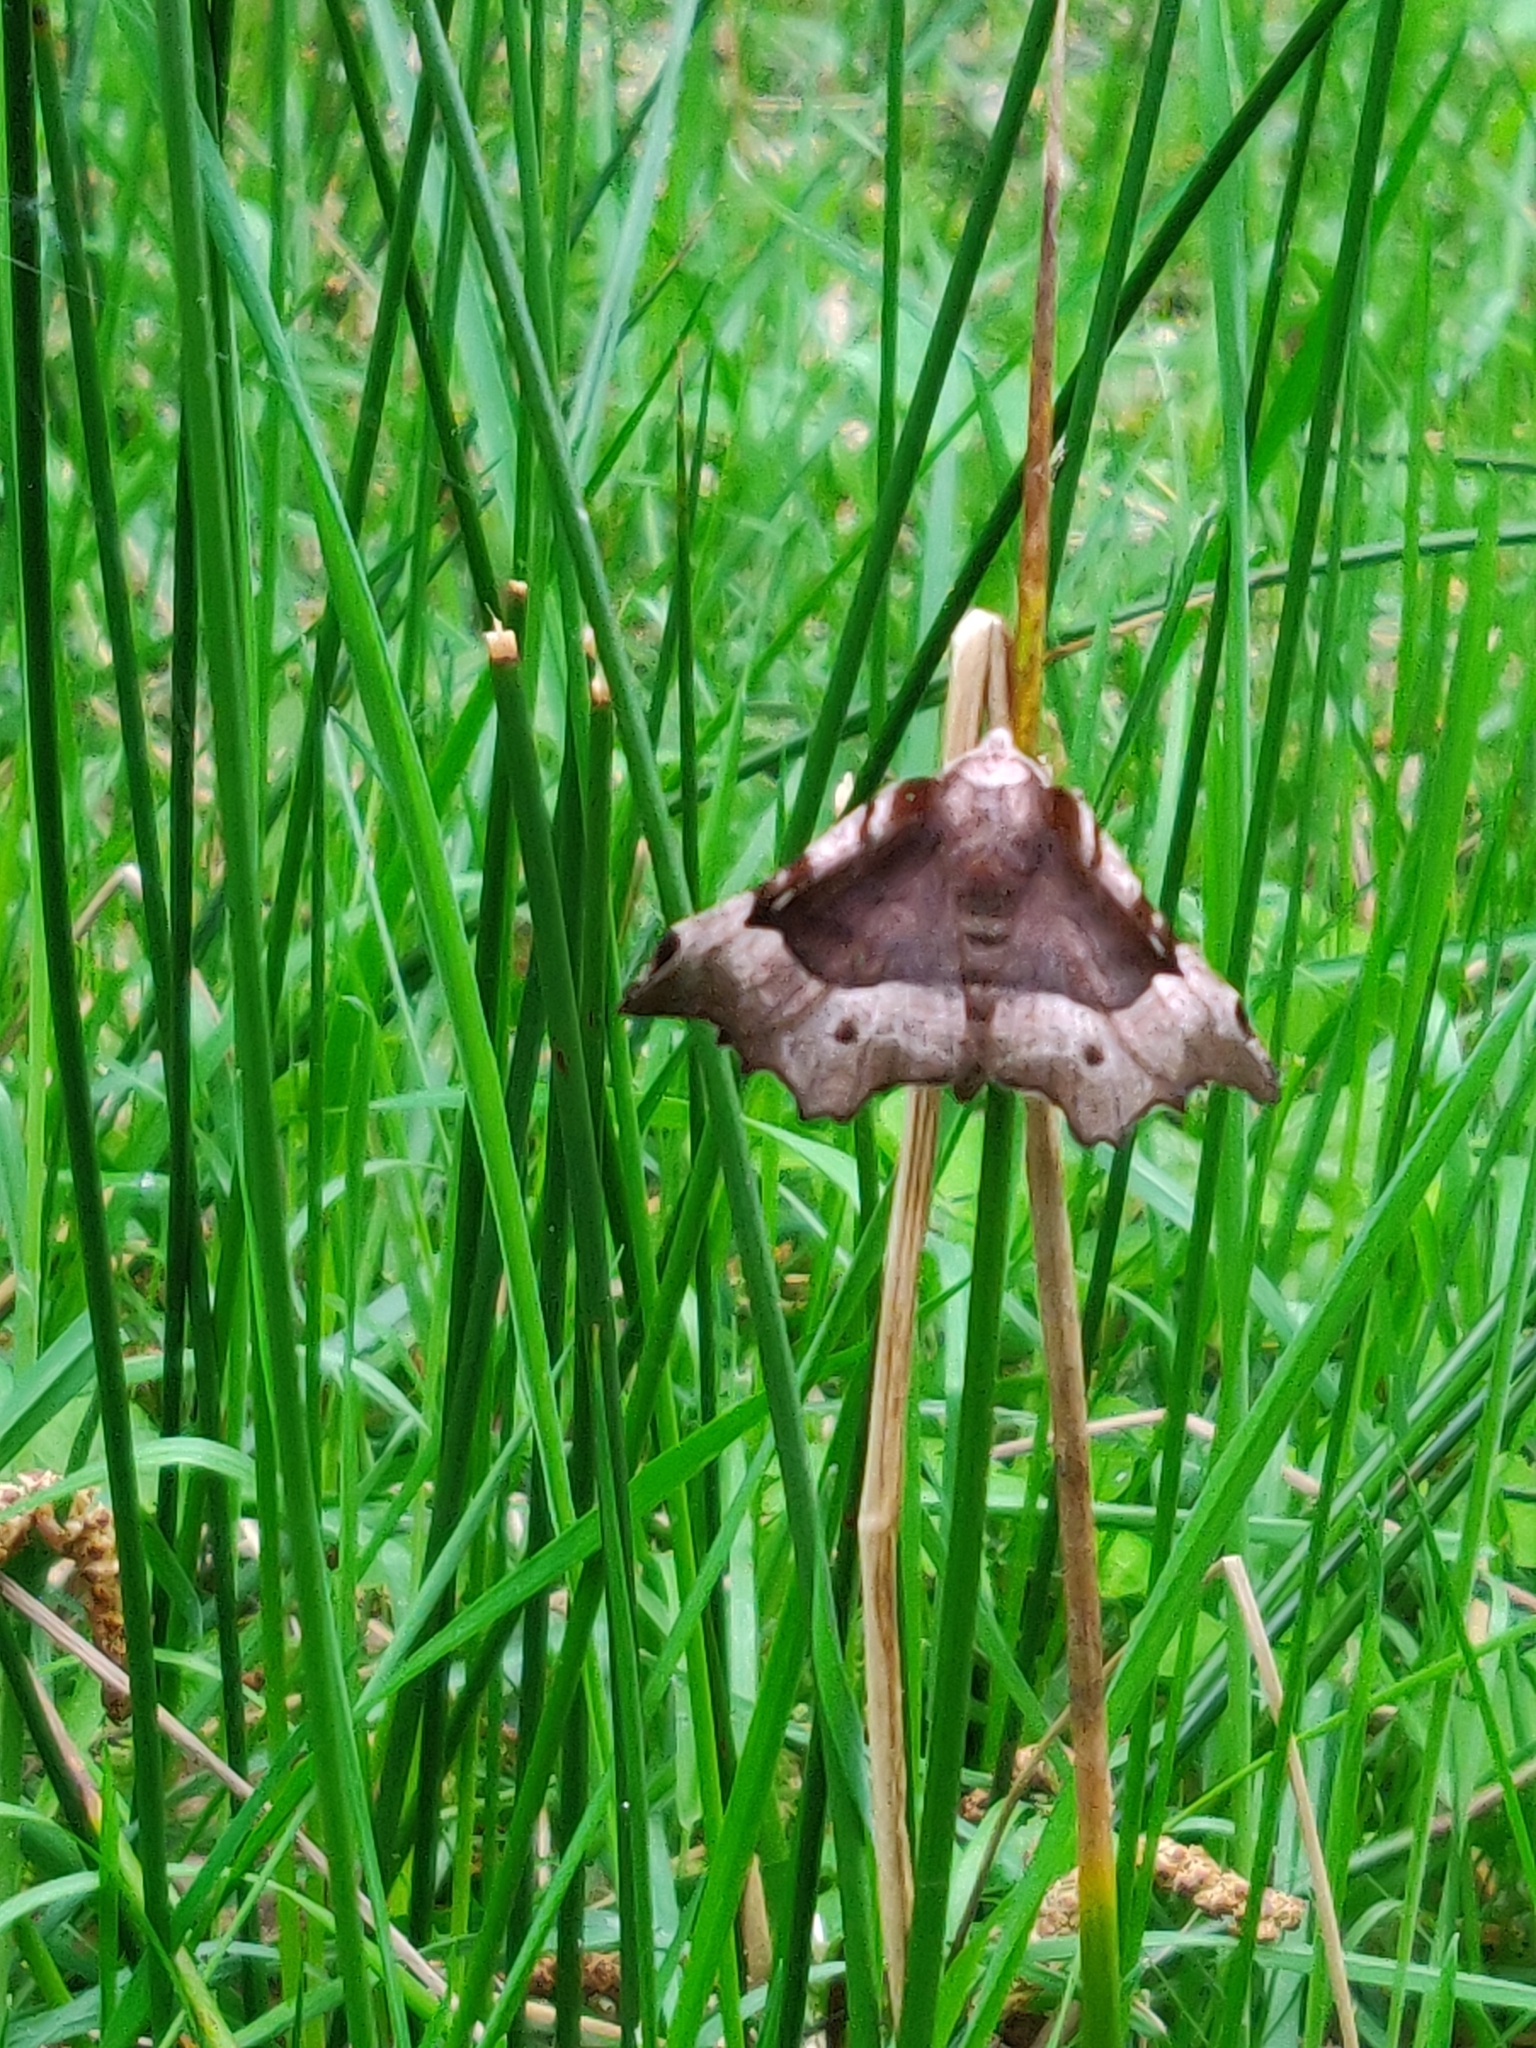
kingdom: Animalia
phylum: Arthropoda
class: Insecta
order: Lepidoptera
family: Geometridae
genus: Selenia
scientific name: Selenia tetralunaria
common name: Purple thorn
